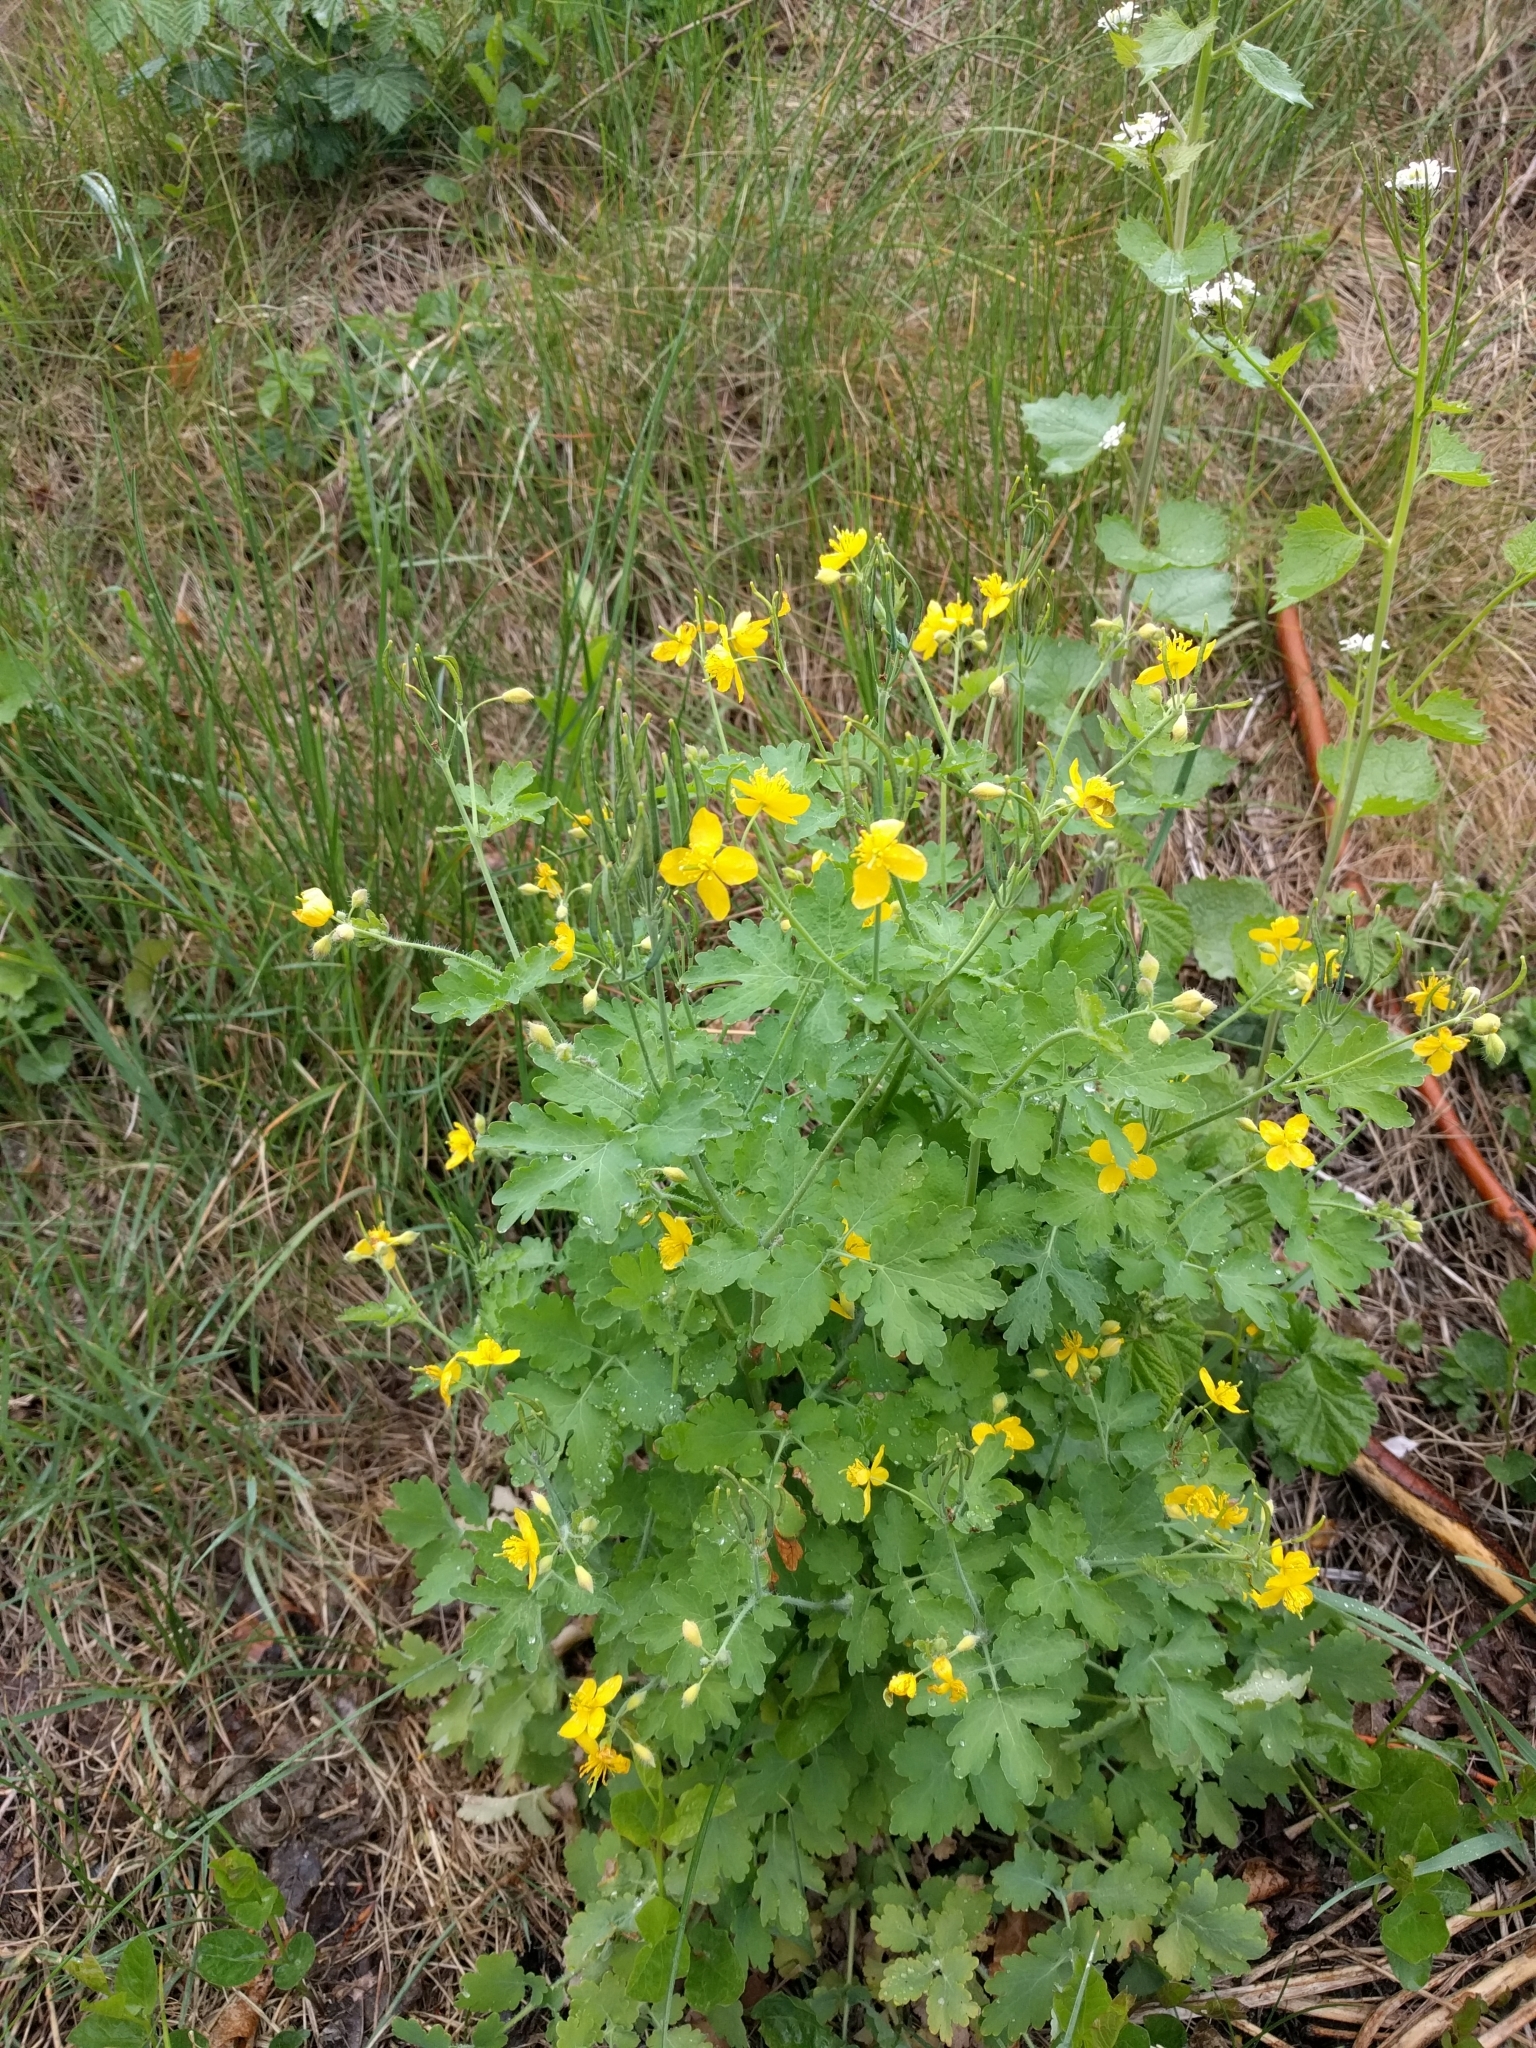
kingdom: Plantae
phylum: Tracheophyta
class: Magnoliopsida
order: Ranunculales
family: Papaveraceae
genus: Chelidonium
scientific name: Chelidonium majus
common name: Greater celandine
